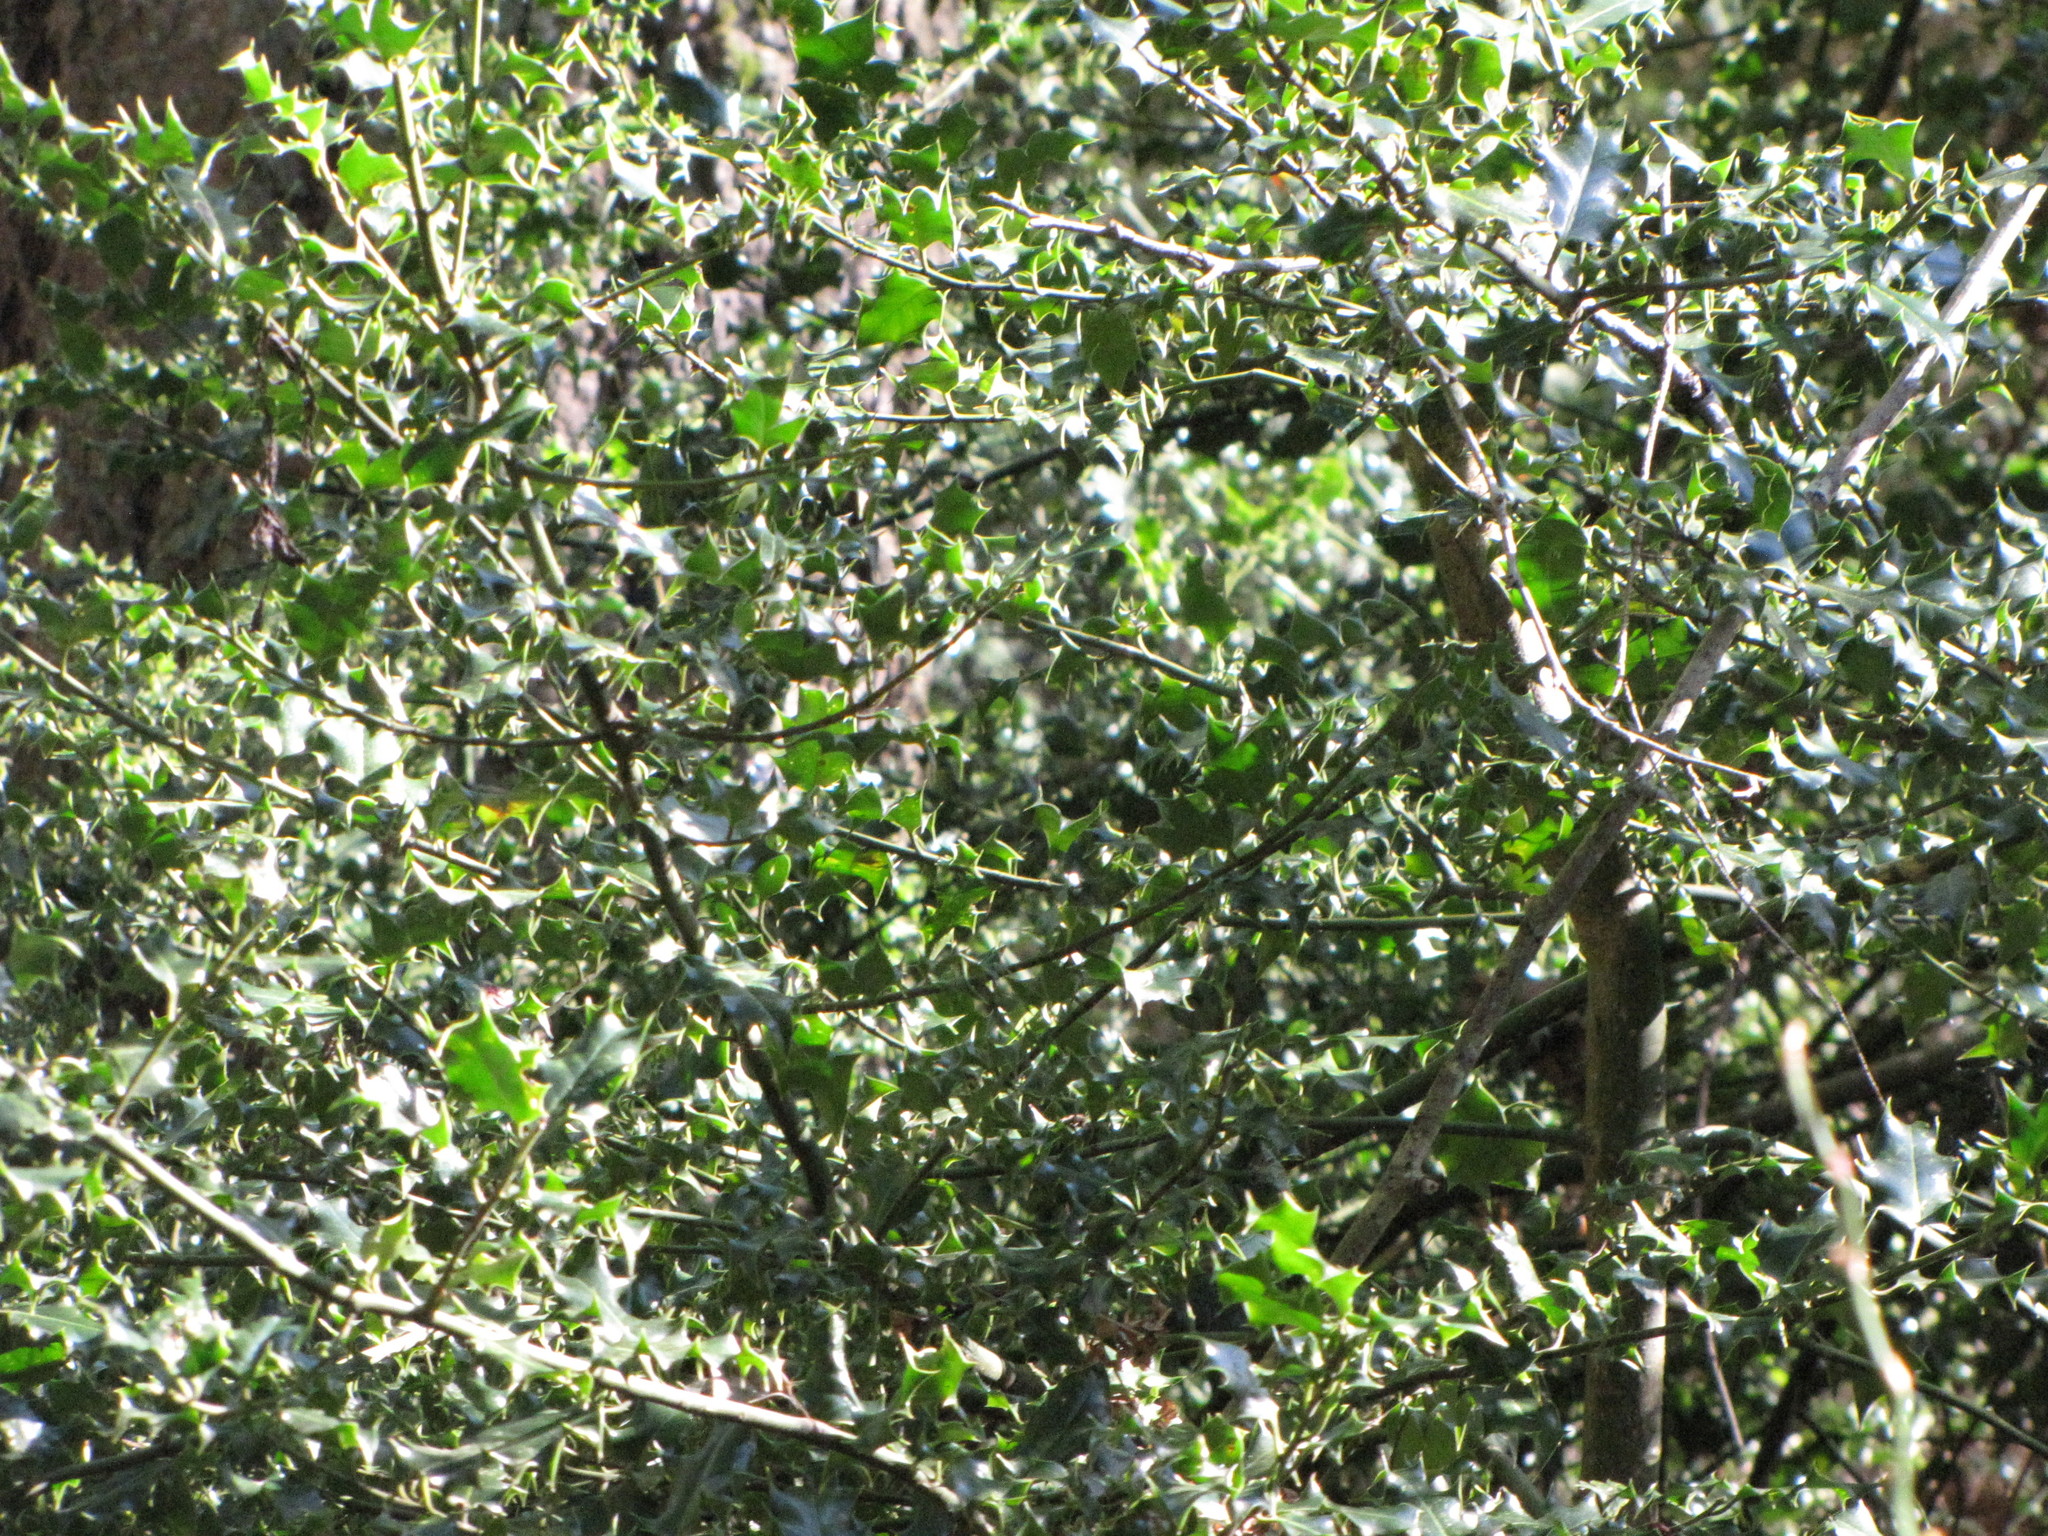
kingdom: Plantae
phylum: Tracheophyta
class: Magnoliopsida
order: Aquifoliales
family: Aquifoliaceae
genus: Ilex
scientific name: Ilex aquifolium
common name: English holly
